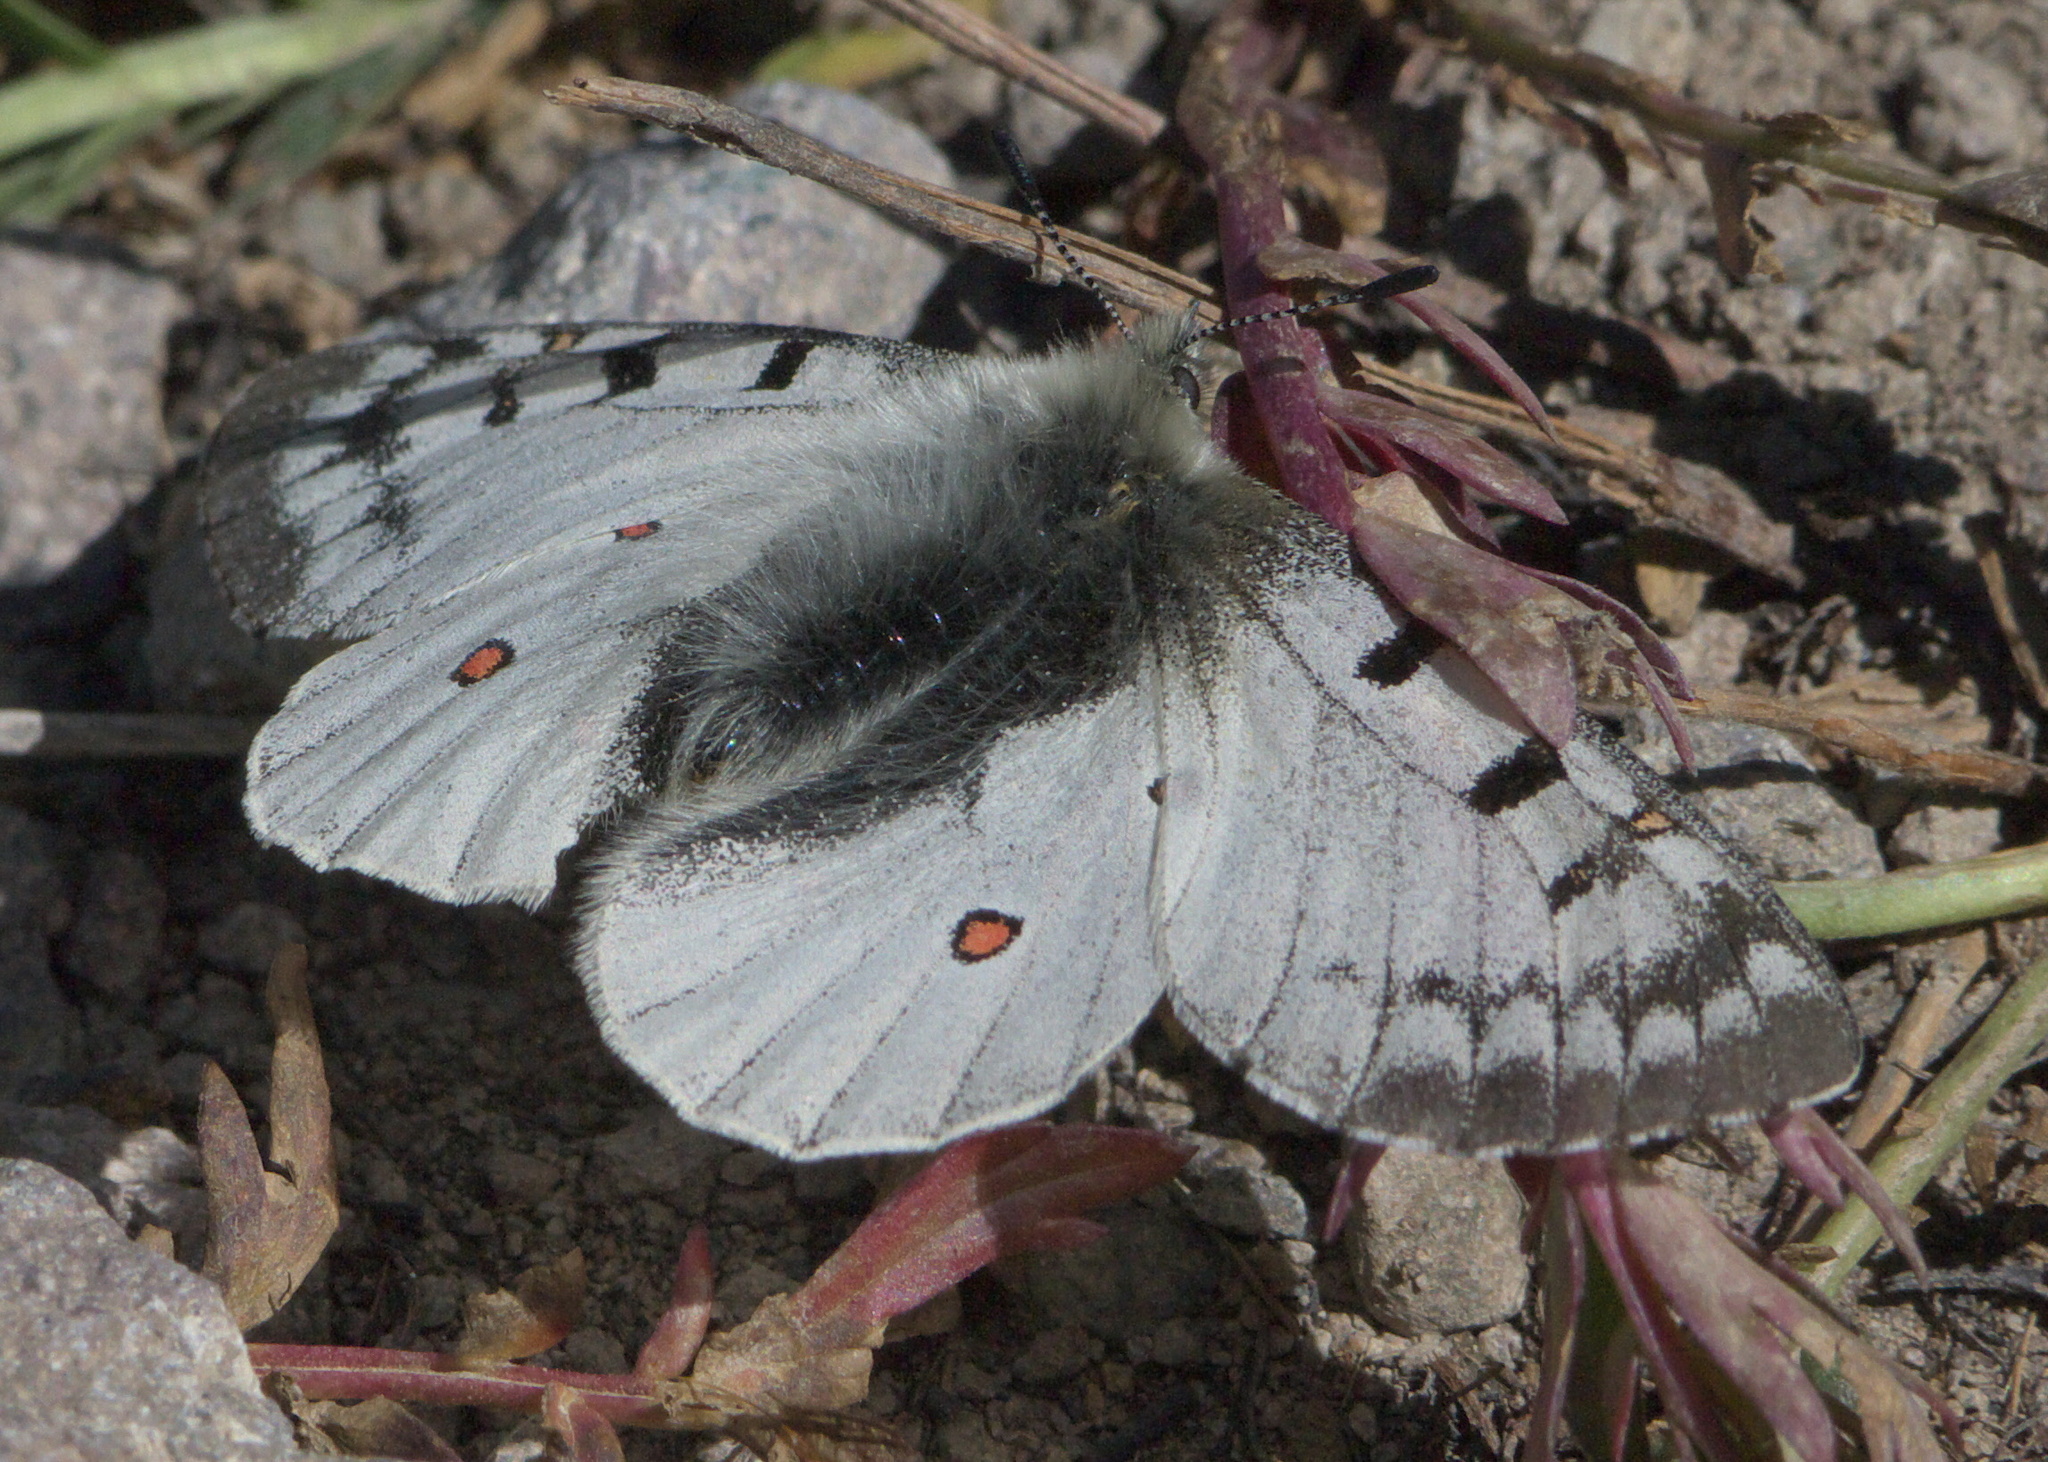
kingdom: Animalia
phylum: Arthropoda
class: Insecta
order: Lepidoptera
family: Papilionidae
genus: Parnassius
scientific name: Parnassius smintheus
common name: Mountain parnassian
